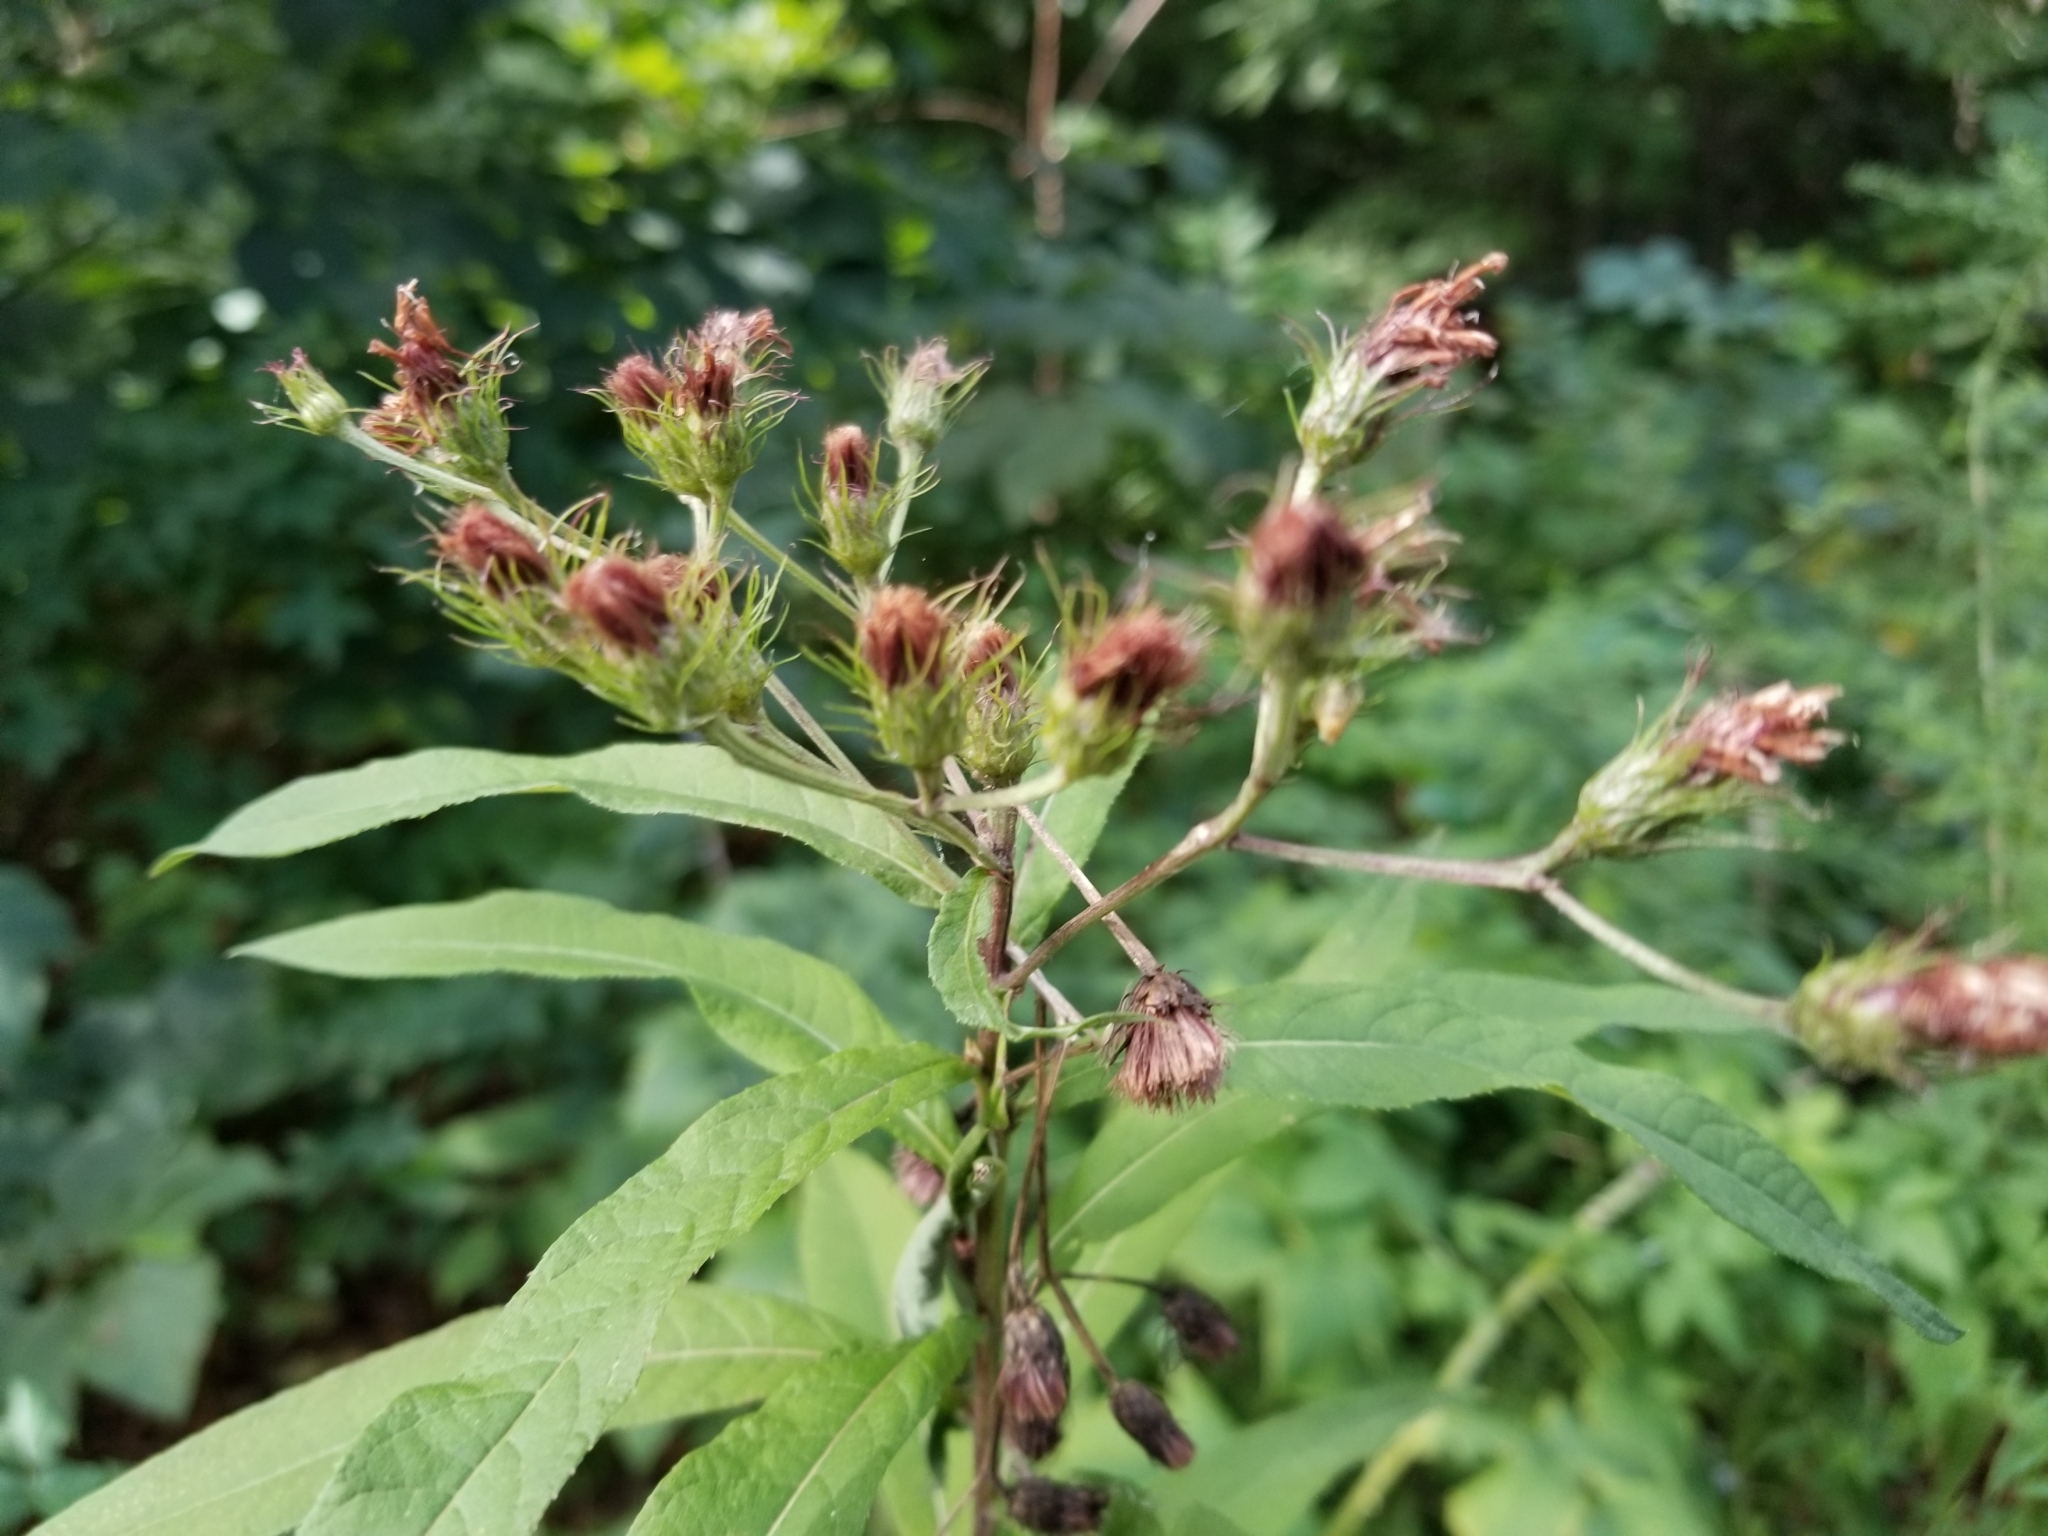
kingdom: Plantae
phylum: Tracheophyta
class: Magnoliopsida
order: Asterales
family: Asteraceae
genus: Vernonia
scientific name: Vernonia noveboracensis
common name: New york ironweed
